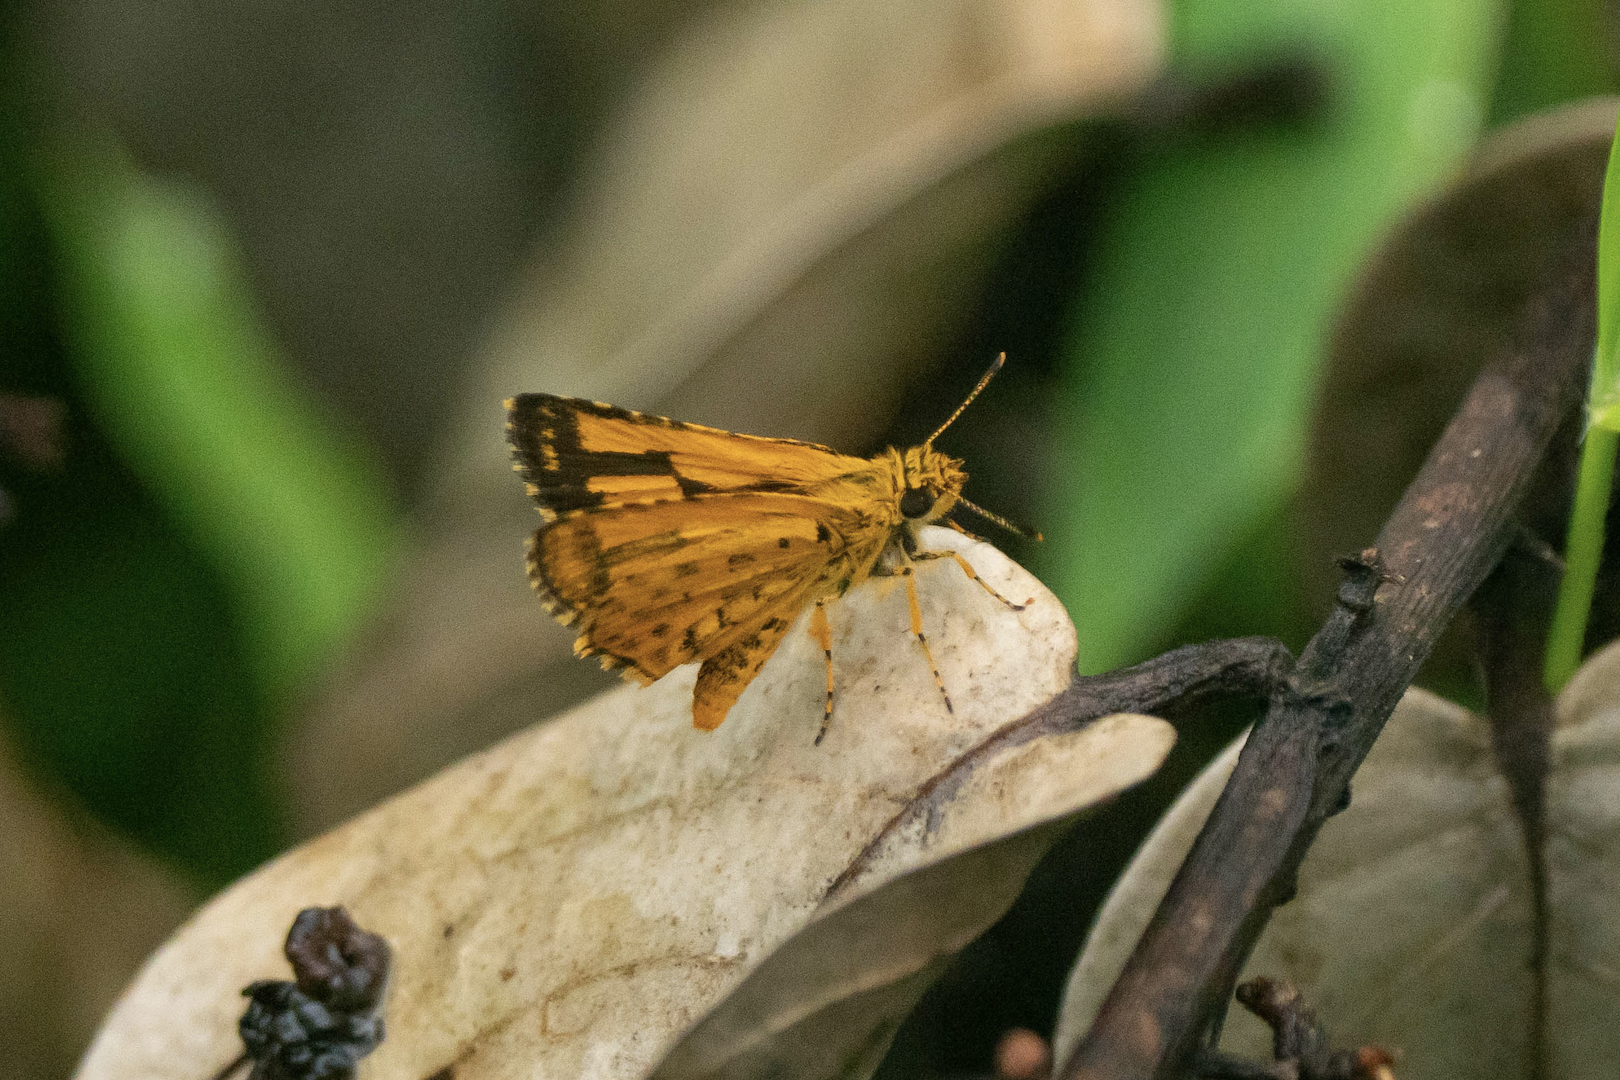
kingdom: Animalia
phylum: Arthropoda
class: Insecta
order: Lepidoptera
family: Hesperiidae
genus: Ampittia
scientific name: Ampittia dioscorides
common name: Common bush hopper
